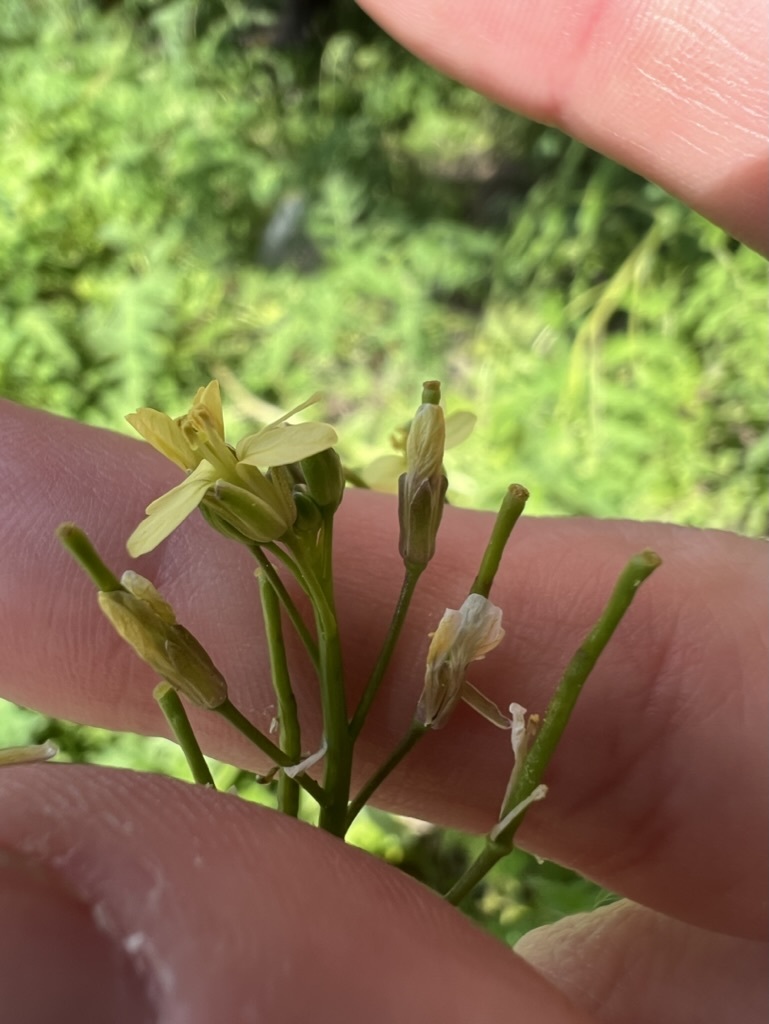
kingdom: Plantae
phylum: Tracheophyta
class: Magnoliopsida
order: Brassicales
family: Brassicaceae
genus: Brassica
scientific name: Brassica tournefortii
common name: Pale cabbage
